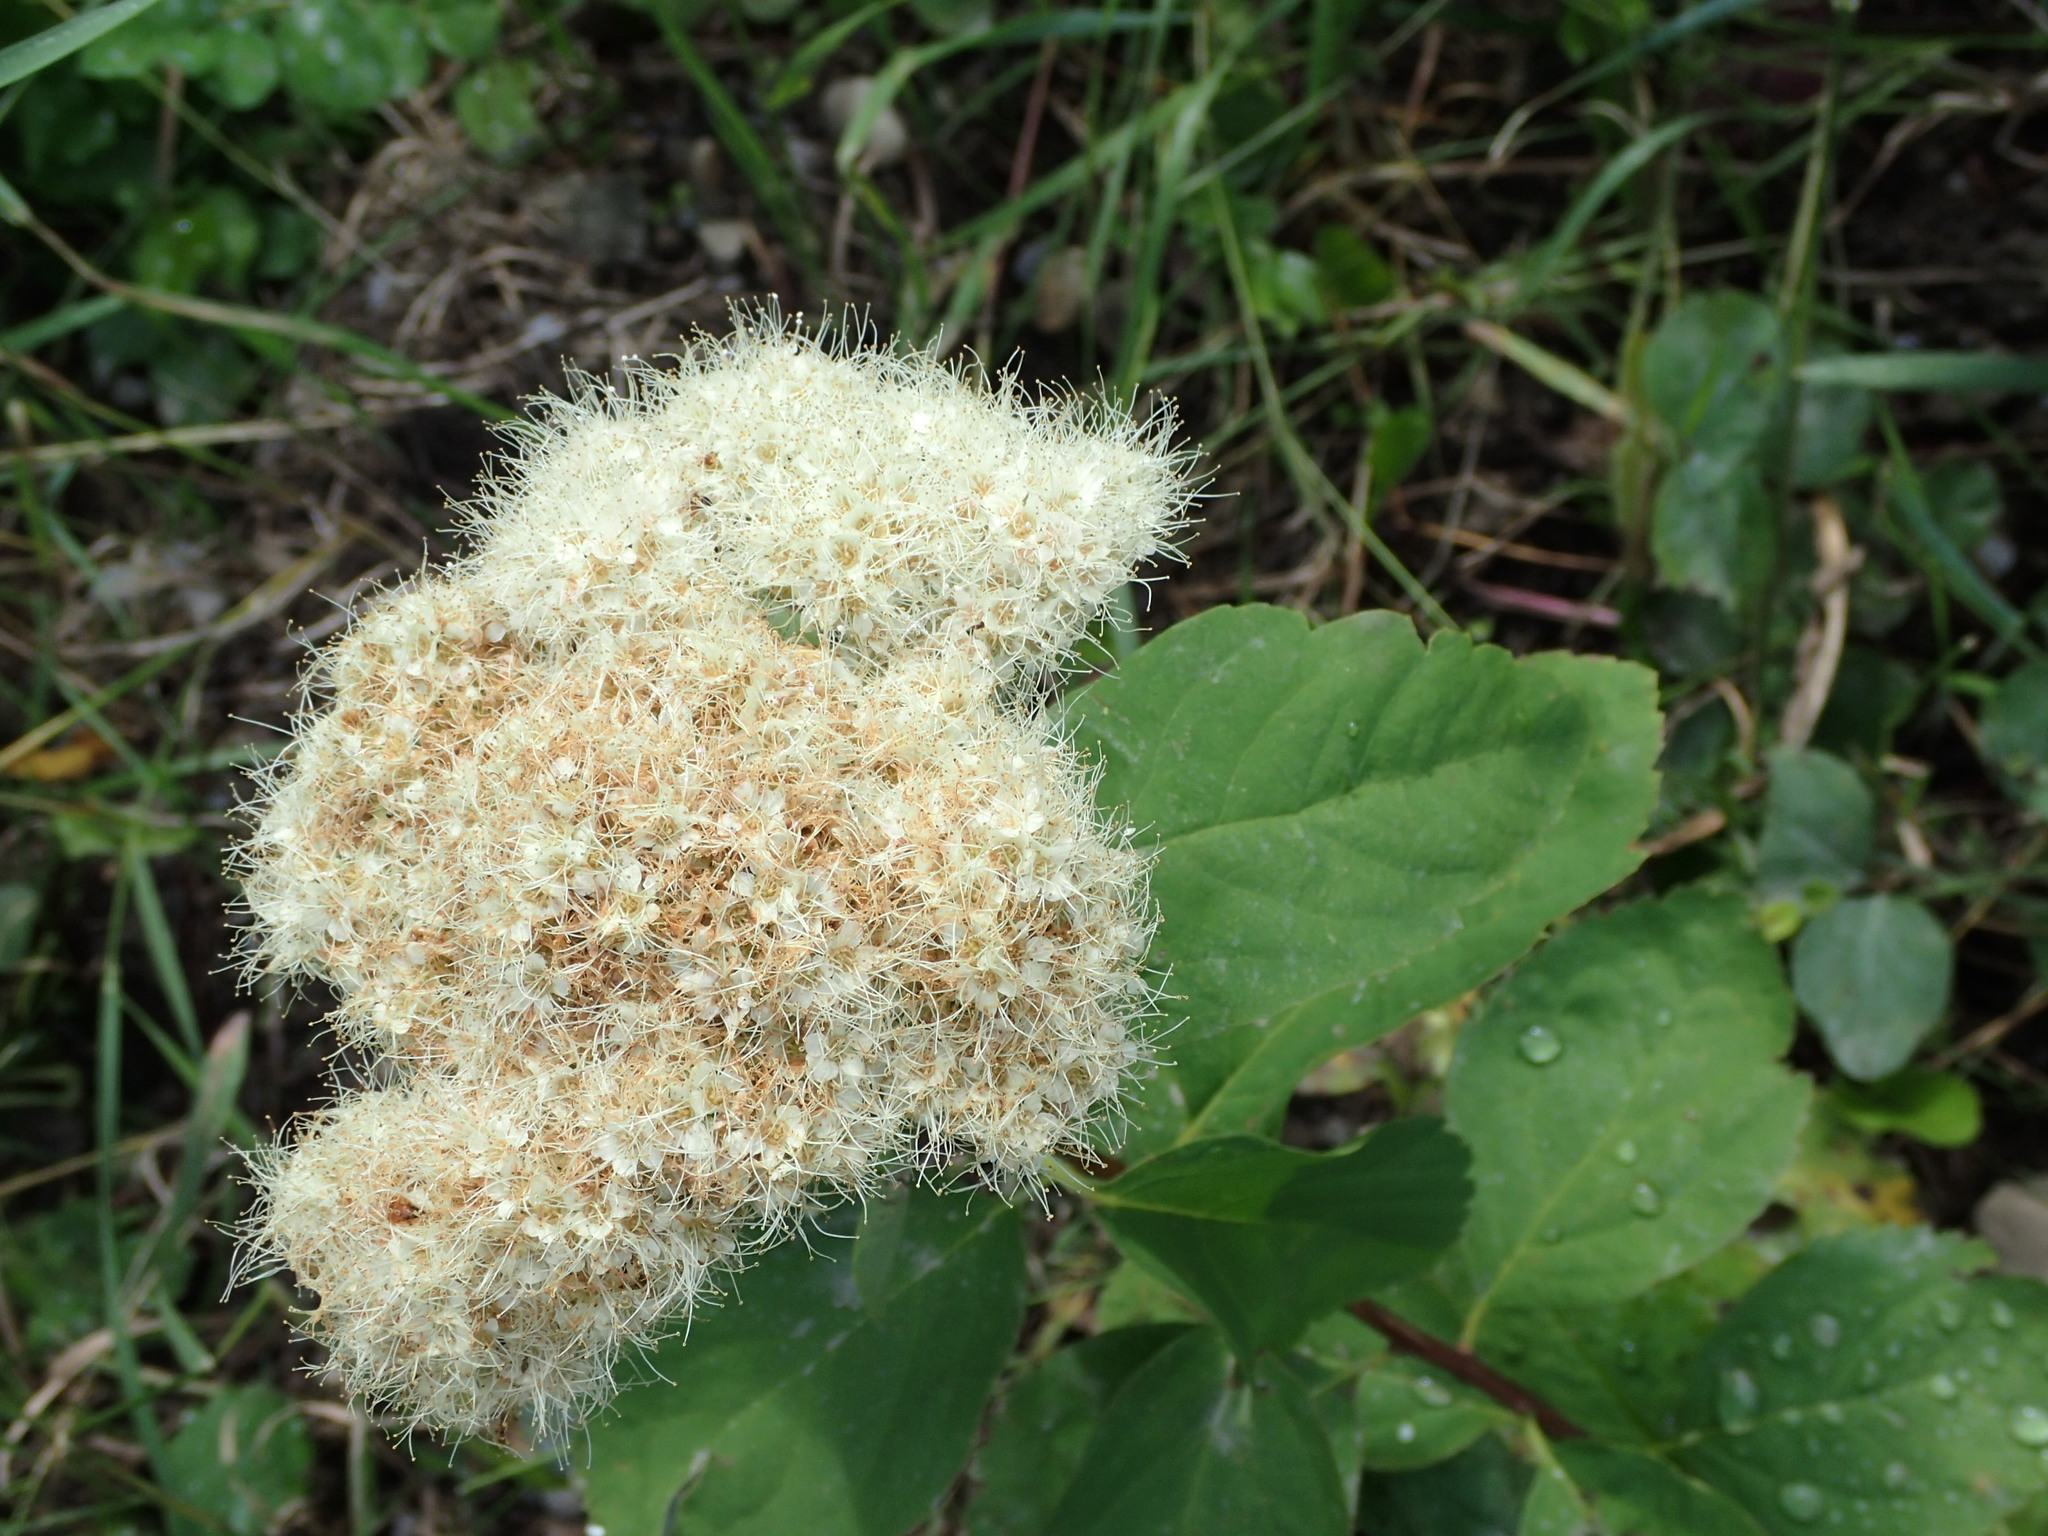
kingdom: Plantae
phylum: Tracheophyta
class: Magnoliopsida
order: Rosales
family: Rosaceae
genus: Spiraea
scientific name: Spiraea lucida
